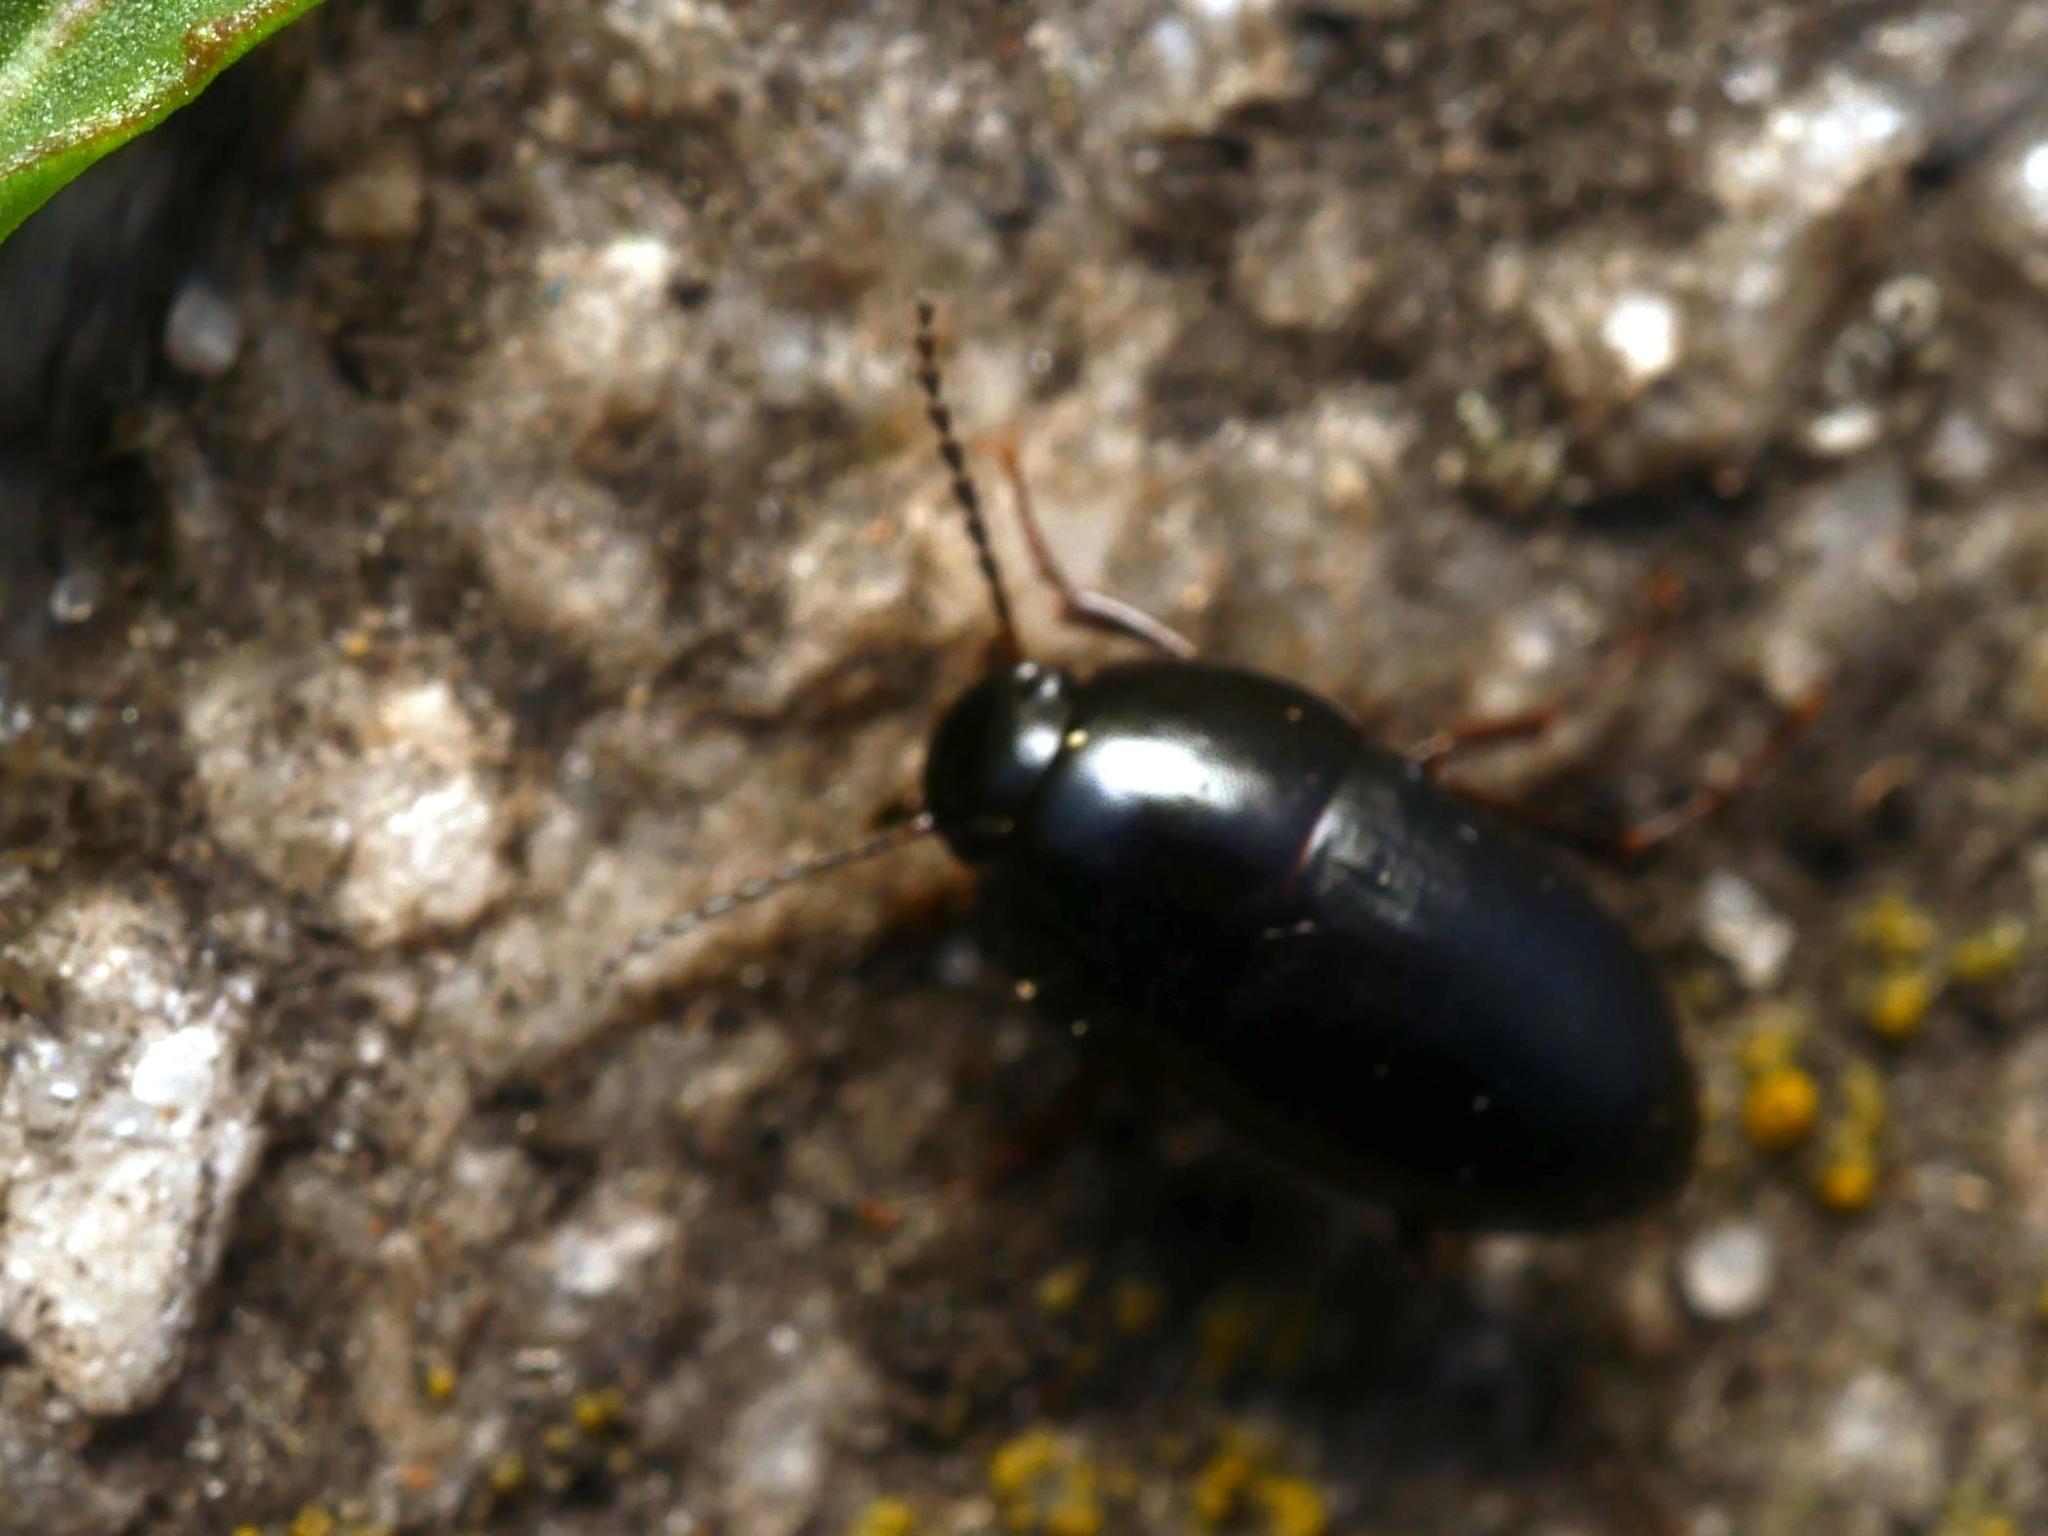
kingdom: Animalia
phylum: Arthropoda
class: Insecta
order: Coleoptera
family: Tenebrionidae
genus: Crypticus
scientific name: Crypticus quisquilius
